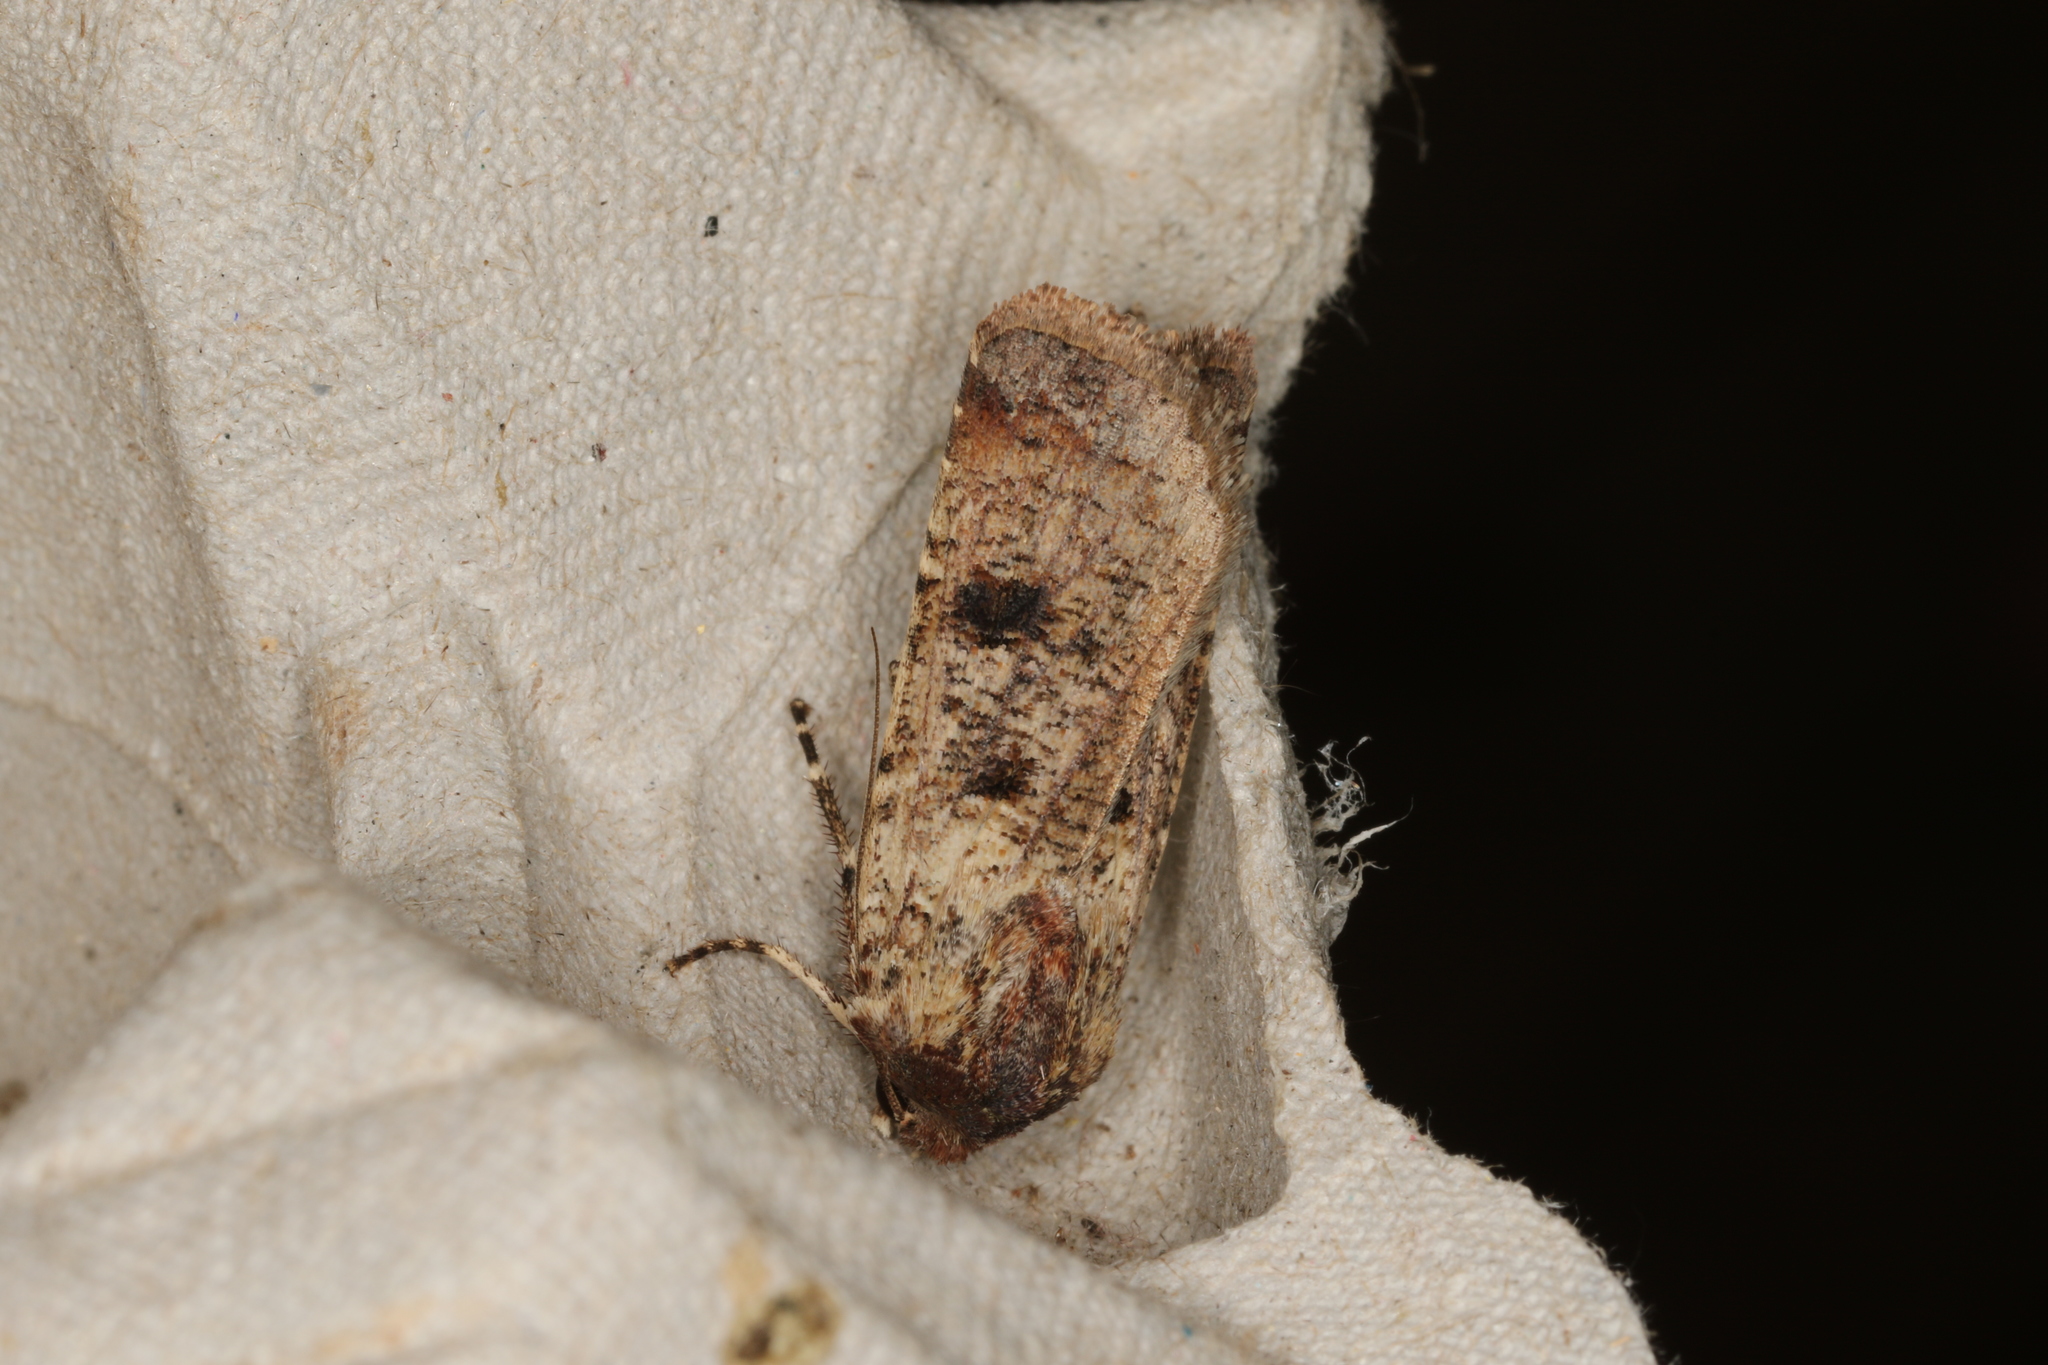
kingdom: Animalia
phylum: Arthropoda
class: Insecta
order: Lepidoptera
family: Noctuidae
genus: Agrotis
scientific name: Agrotis porphyricollis
